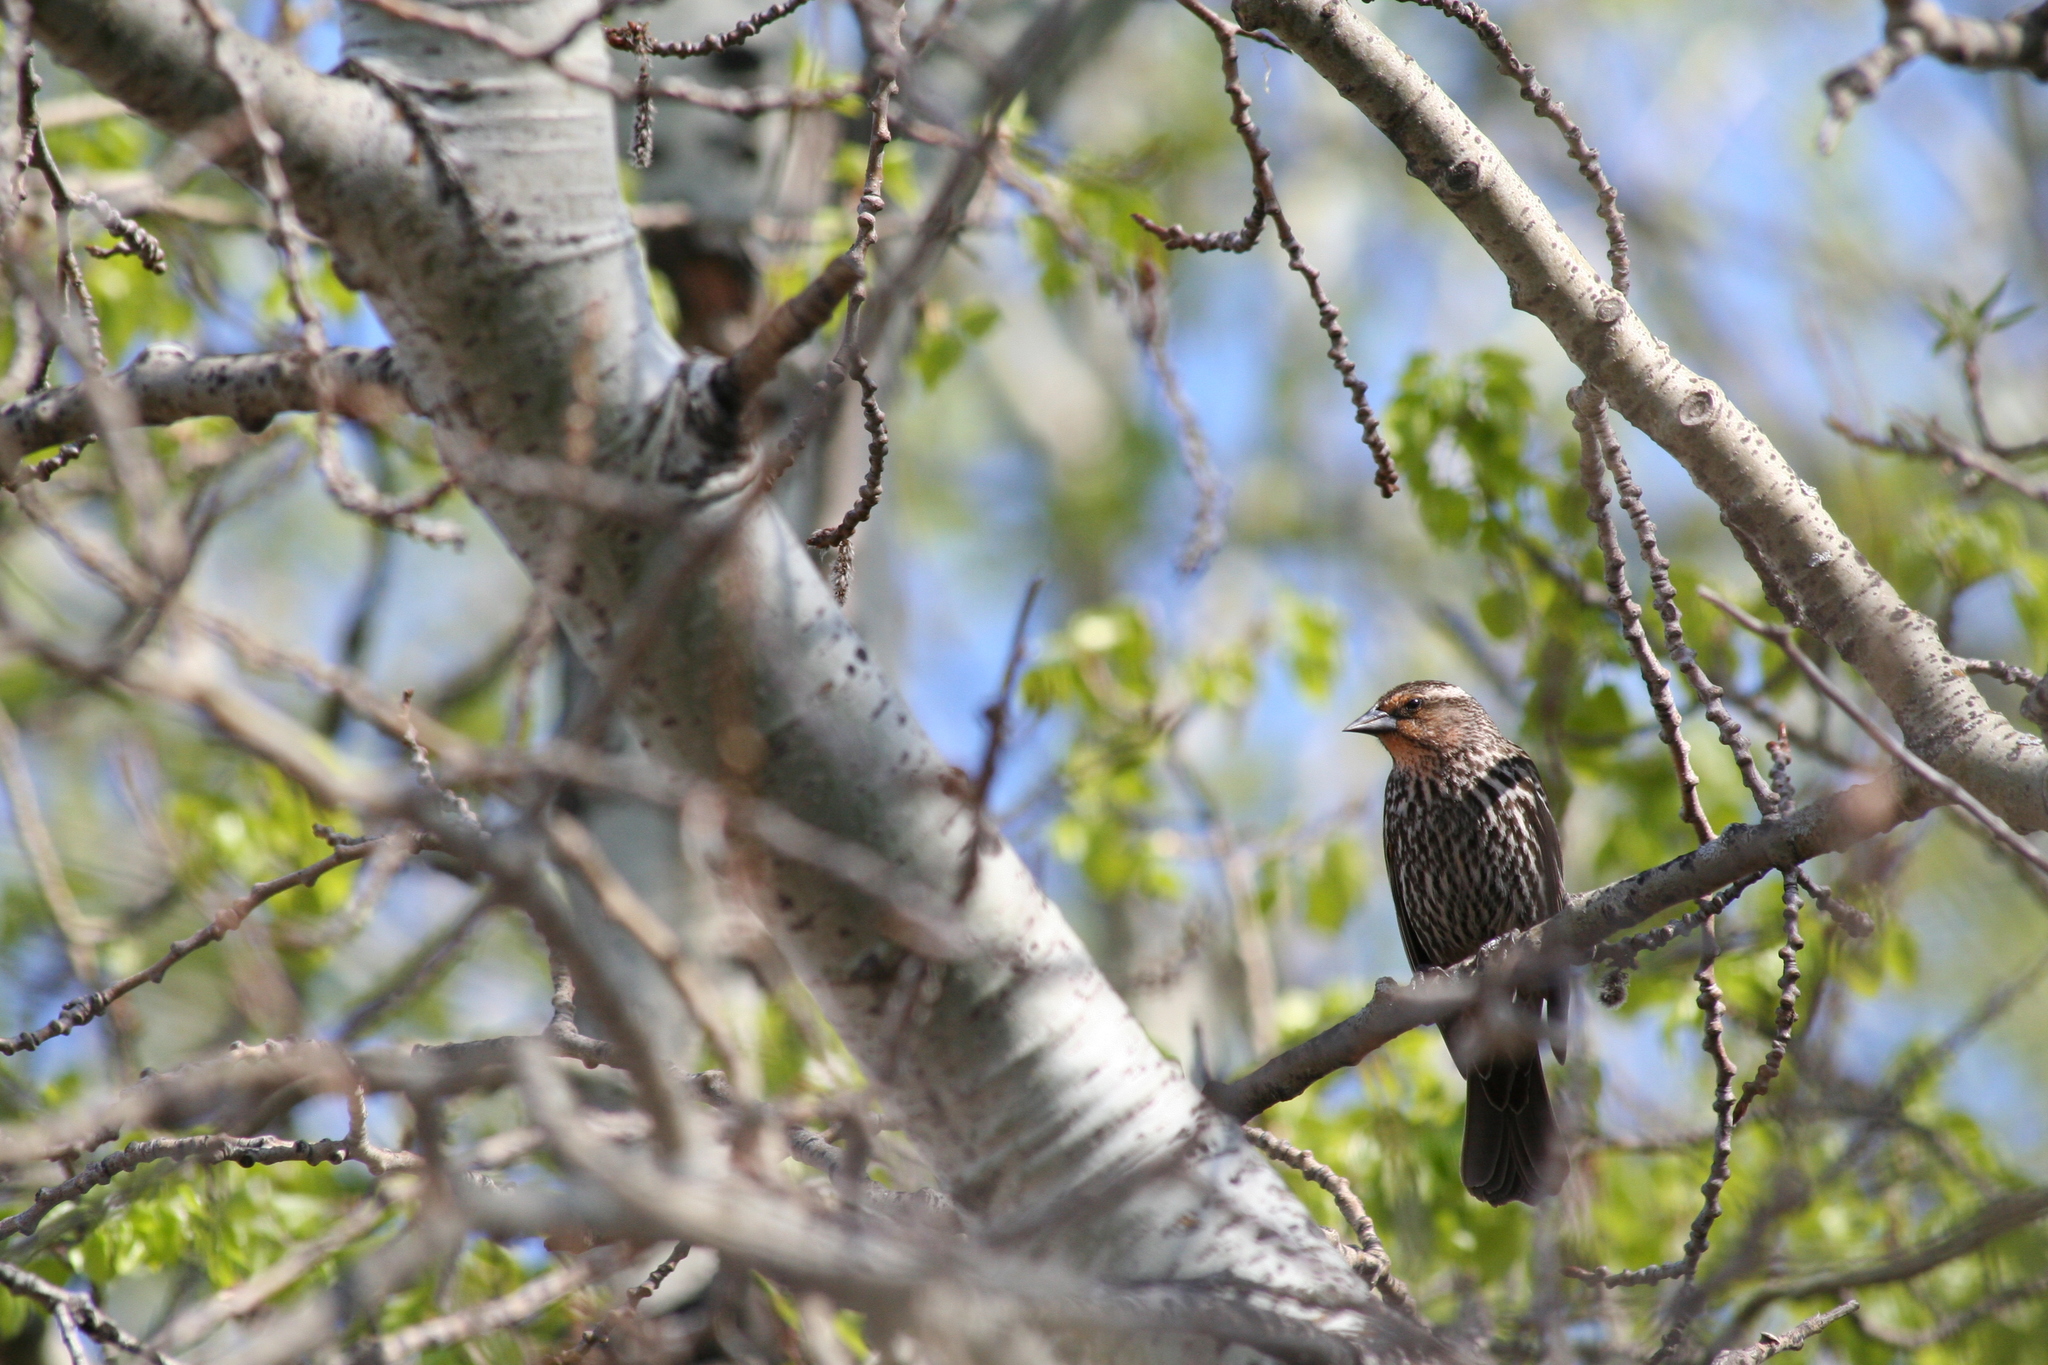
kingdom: Animalia
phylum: Chordata
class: Aves
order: Passeriformes
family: Icteridae
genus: Agelaius
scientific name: Agelaius phoeniceus
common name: Red-winged blackbird
